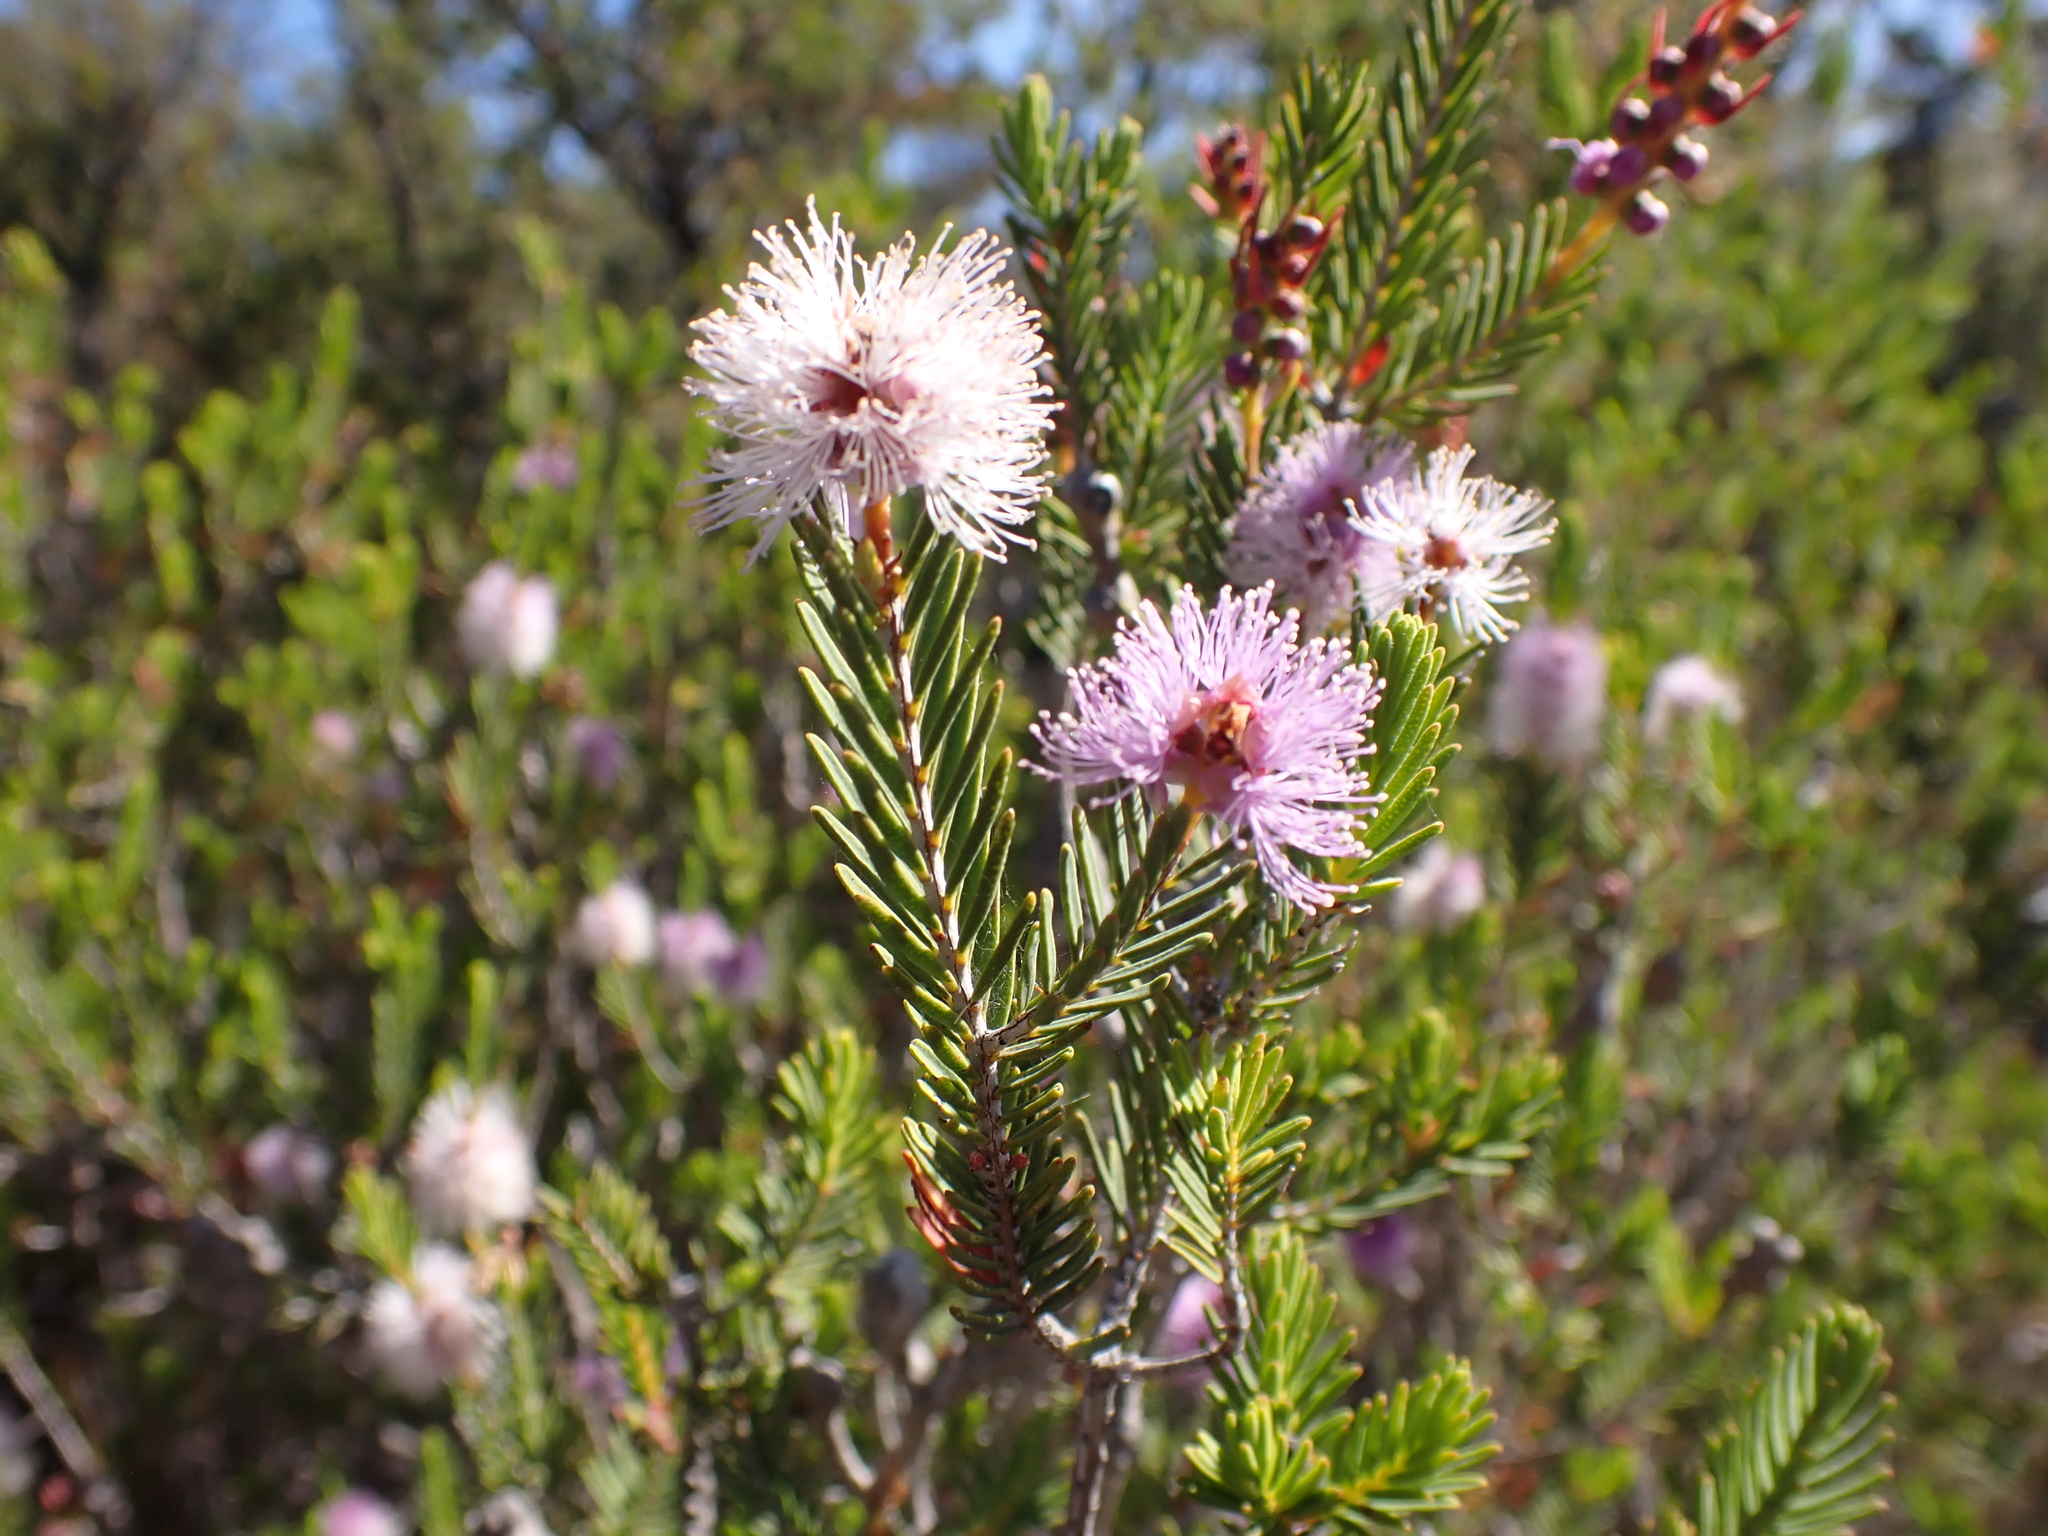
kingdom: Plantae
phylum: Tracheophyta
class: Magnoliopsida
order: Myrtales
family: Myrtaceae
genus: Melaleuca
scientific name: Melaleuca decussata
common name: Cross-leaf honey myrtle
